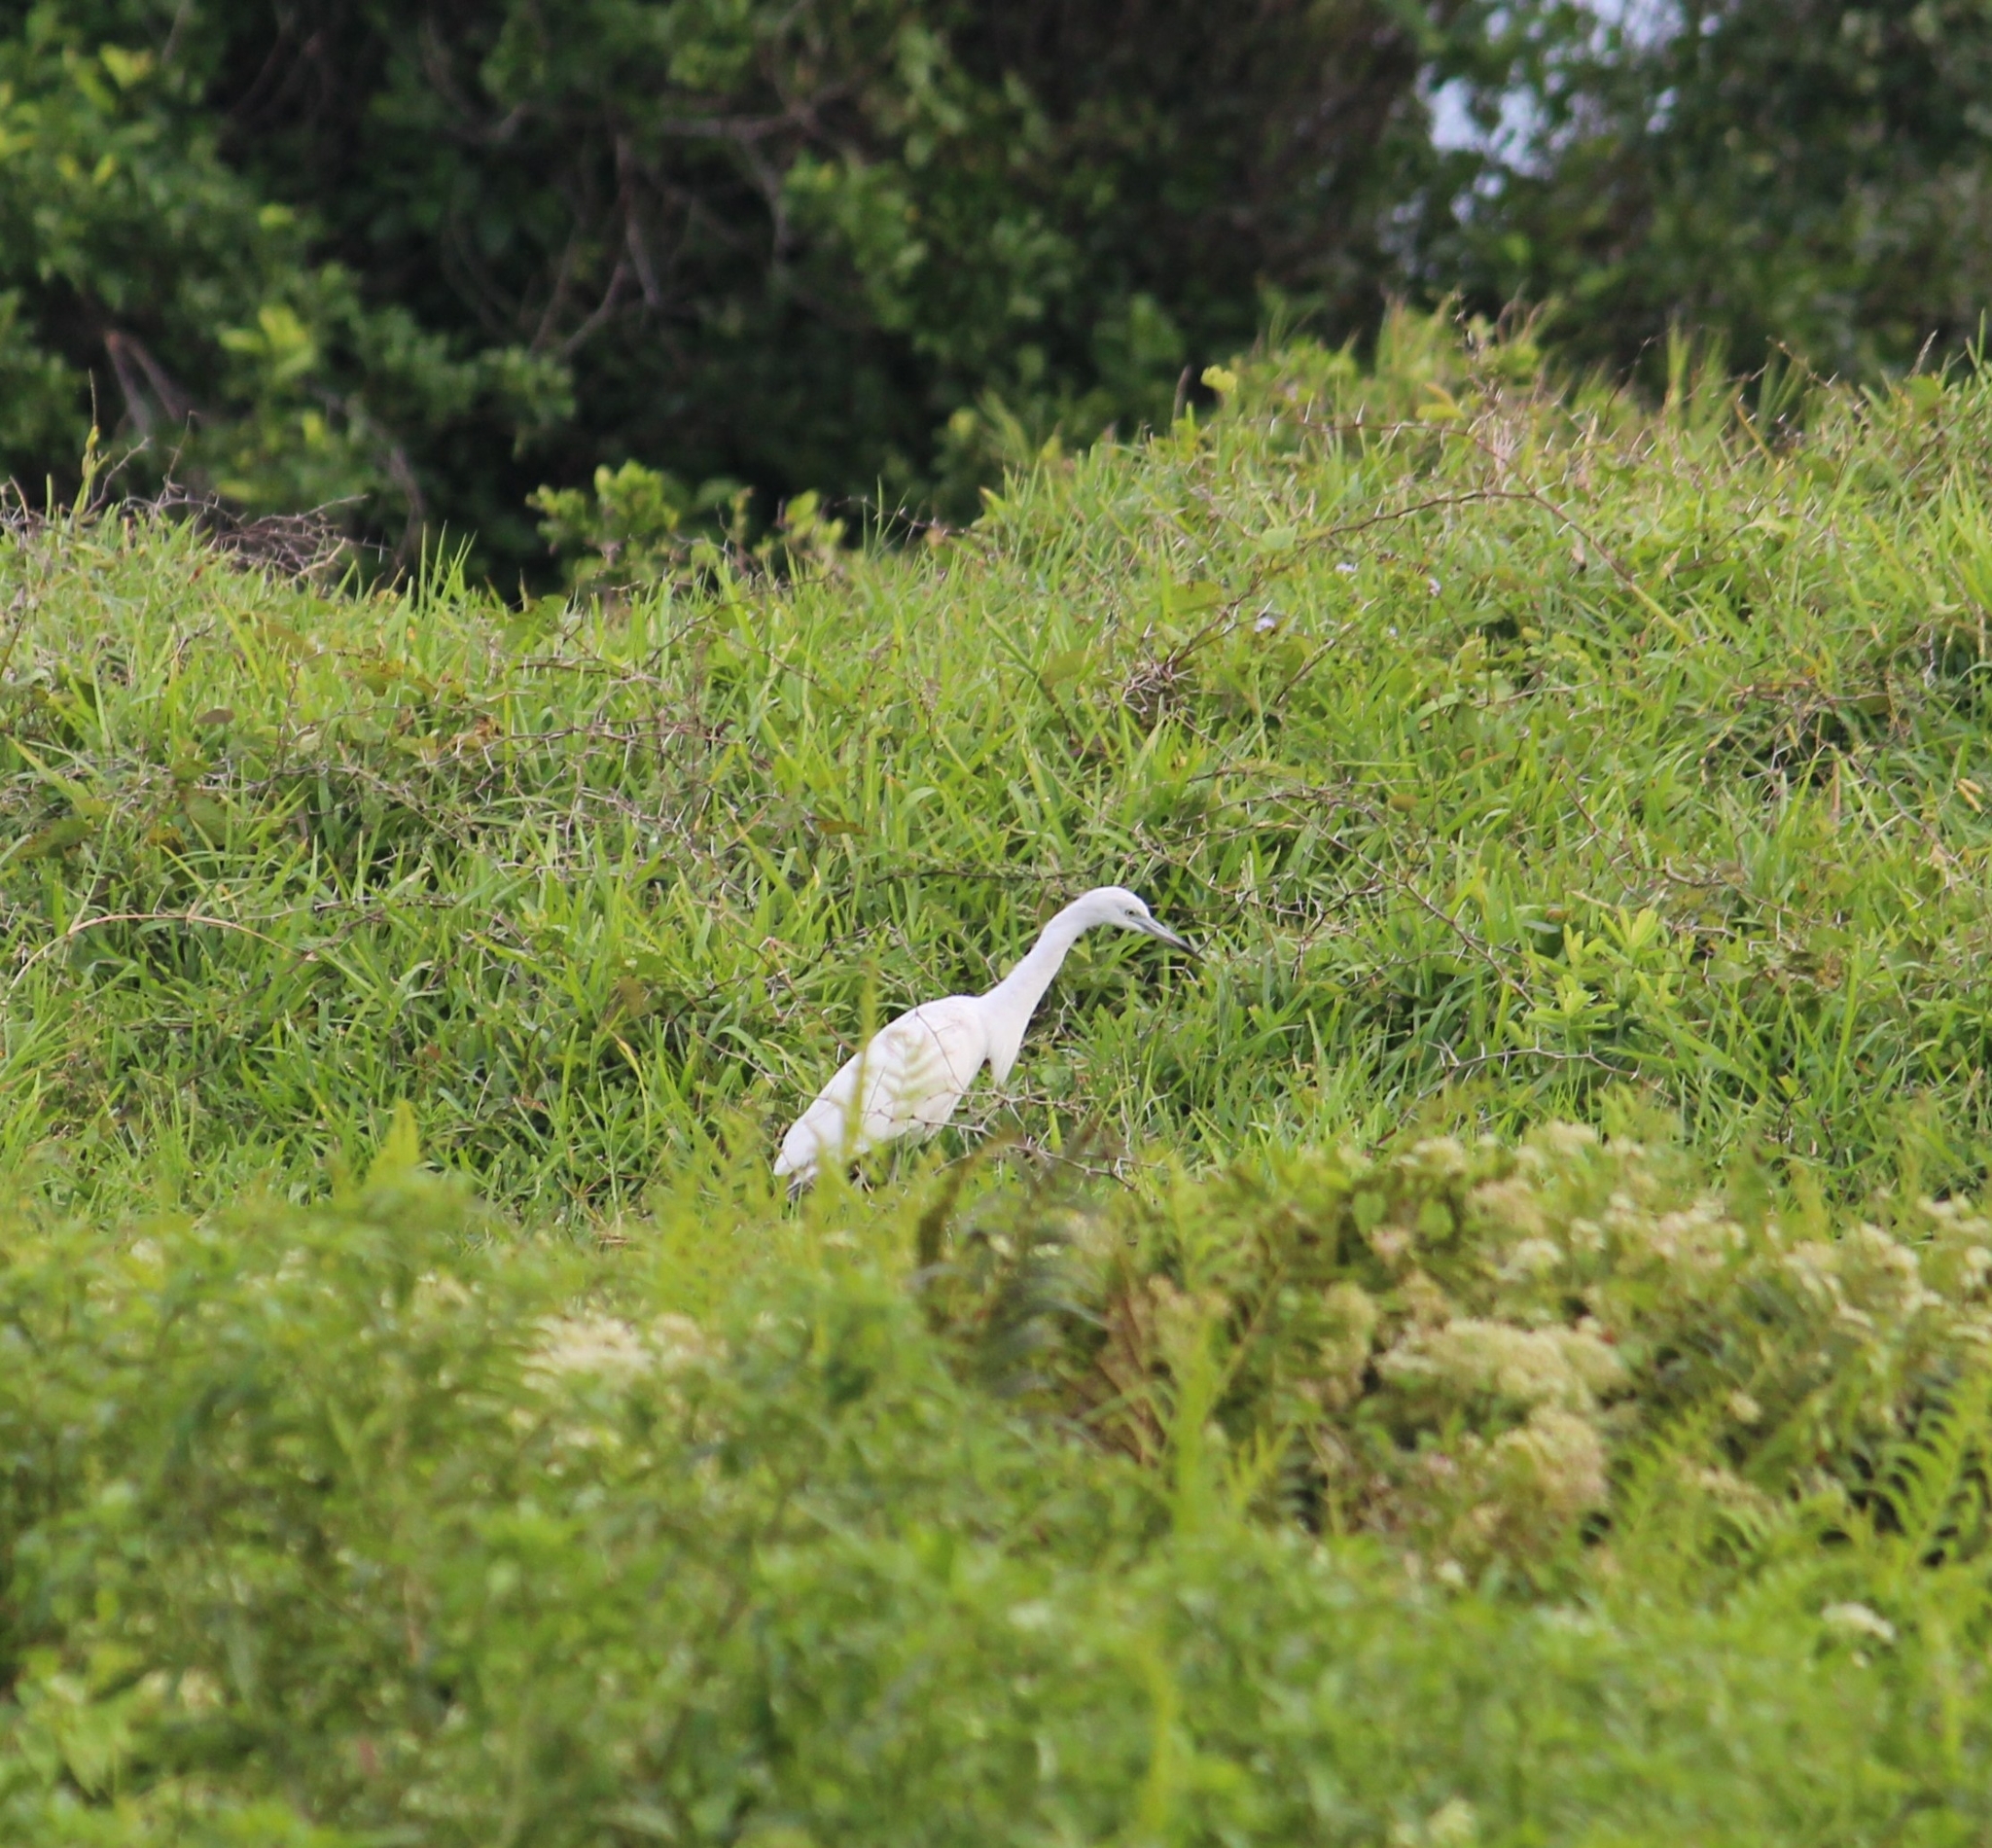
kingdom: Animalia
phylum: Chordata
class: Aves
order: Pelecaniformes
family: Ardeidae
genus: Egretta
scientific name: Egretta caerulea
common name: Little blue heron
